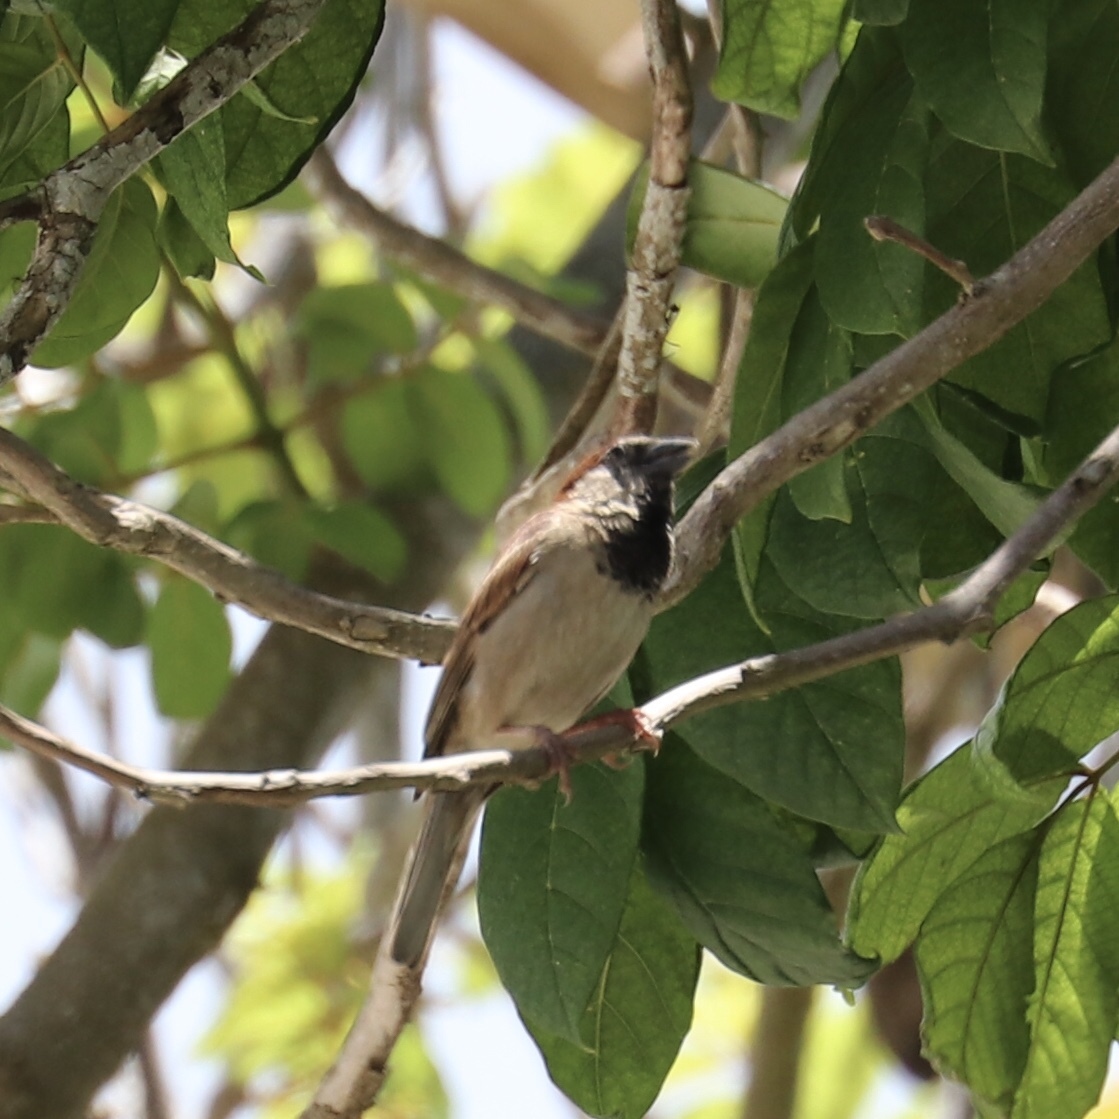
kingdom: Animalia
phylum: Chordata
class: Aves
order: Passeriformes
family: Passeridae
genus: Passer
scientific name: Passer domesticus
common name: House sparrow
